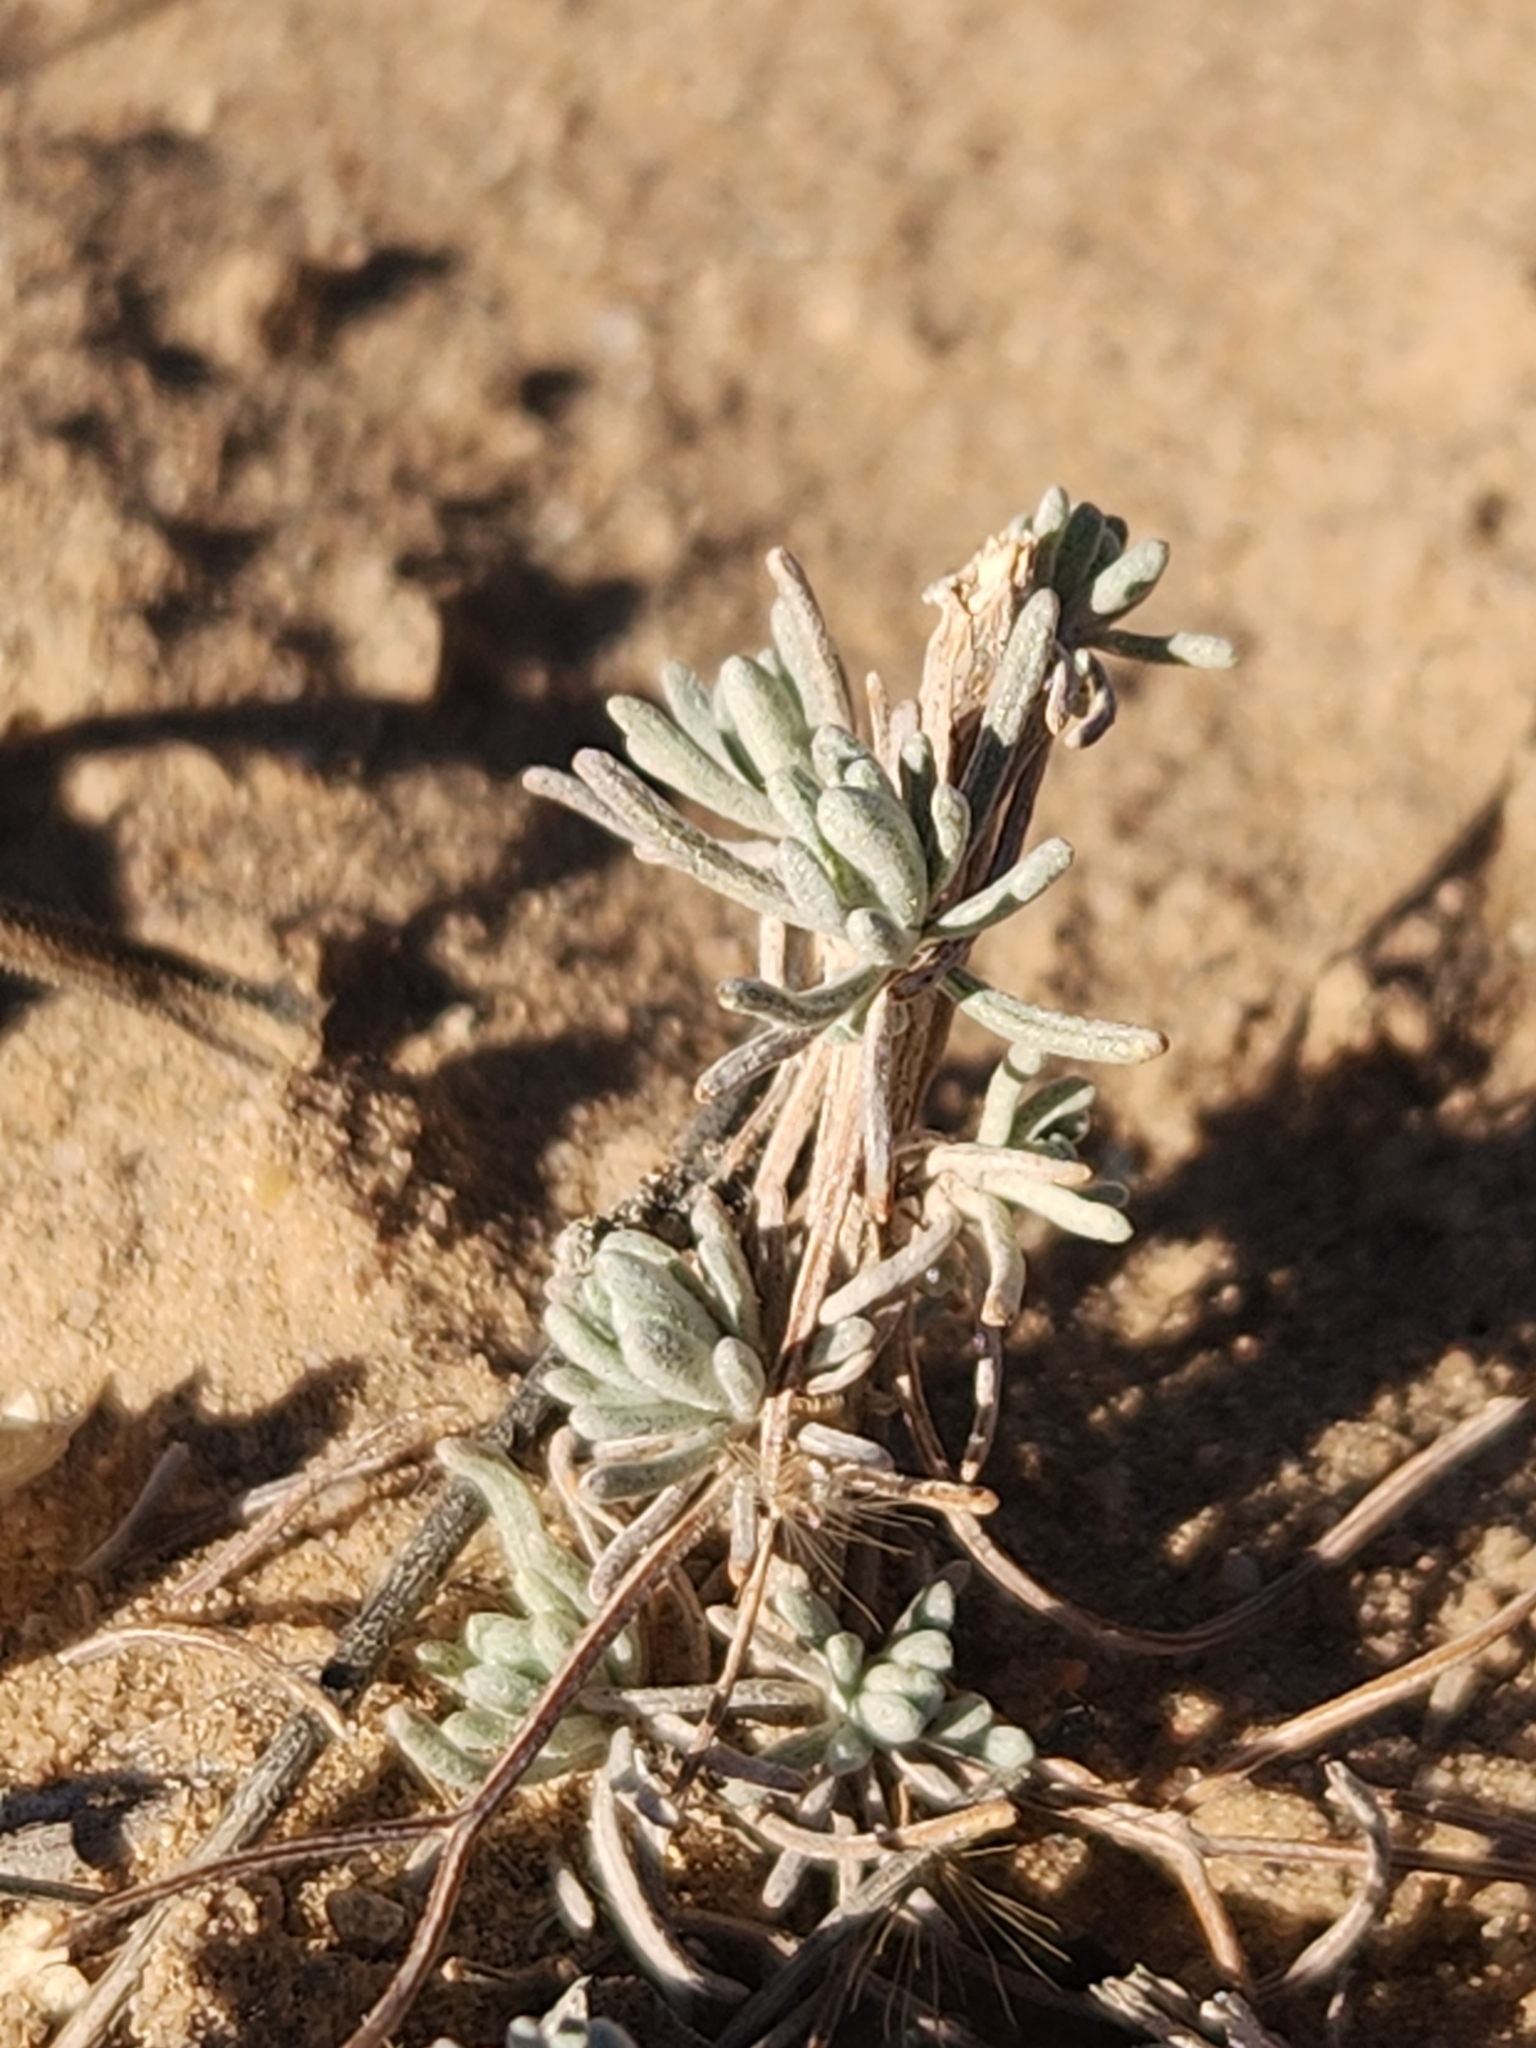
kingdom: Plantae
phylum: Tracheophyta
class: Magnoliopsida
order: Caryophyllales
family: Amaranthaceae
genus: Krascheninnikovia
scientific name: Krascheninnikovia lanata
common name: Winterfat
